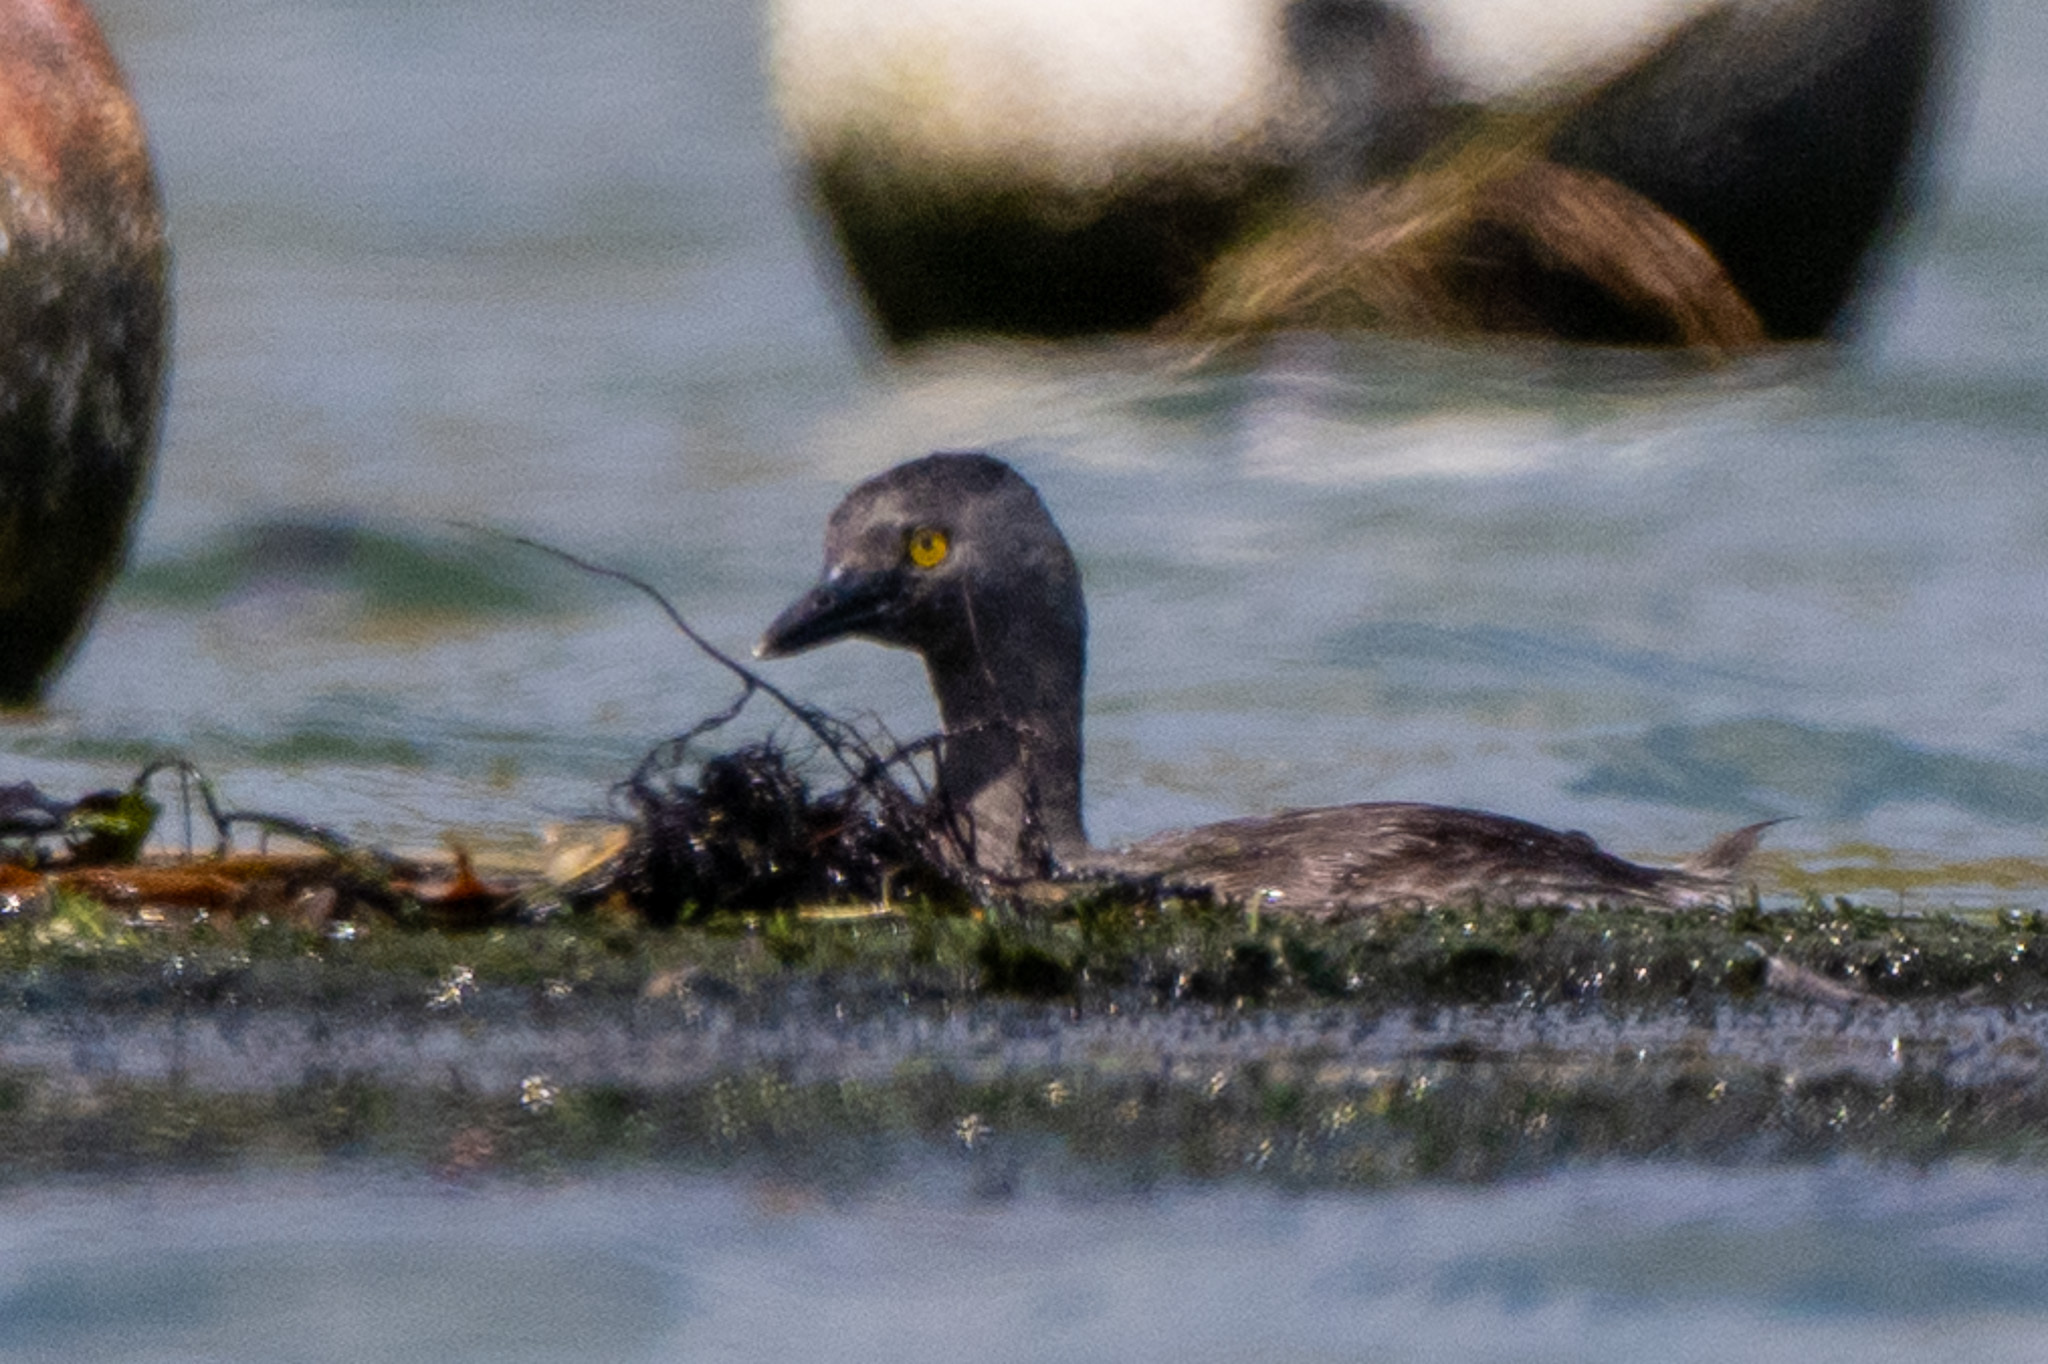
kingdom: Animalia
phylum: Chordata
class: Aves
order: Podicipediformes
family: Podicipedidae
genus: Tachybaptus
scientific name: Tachybaptus dominicus
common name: Least grebe
